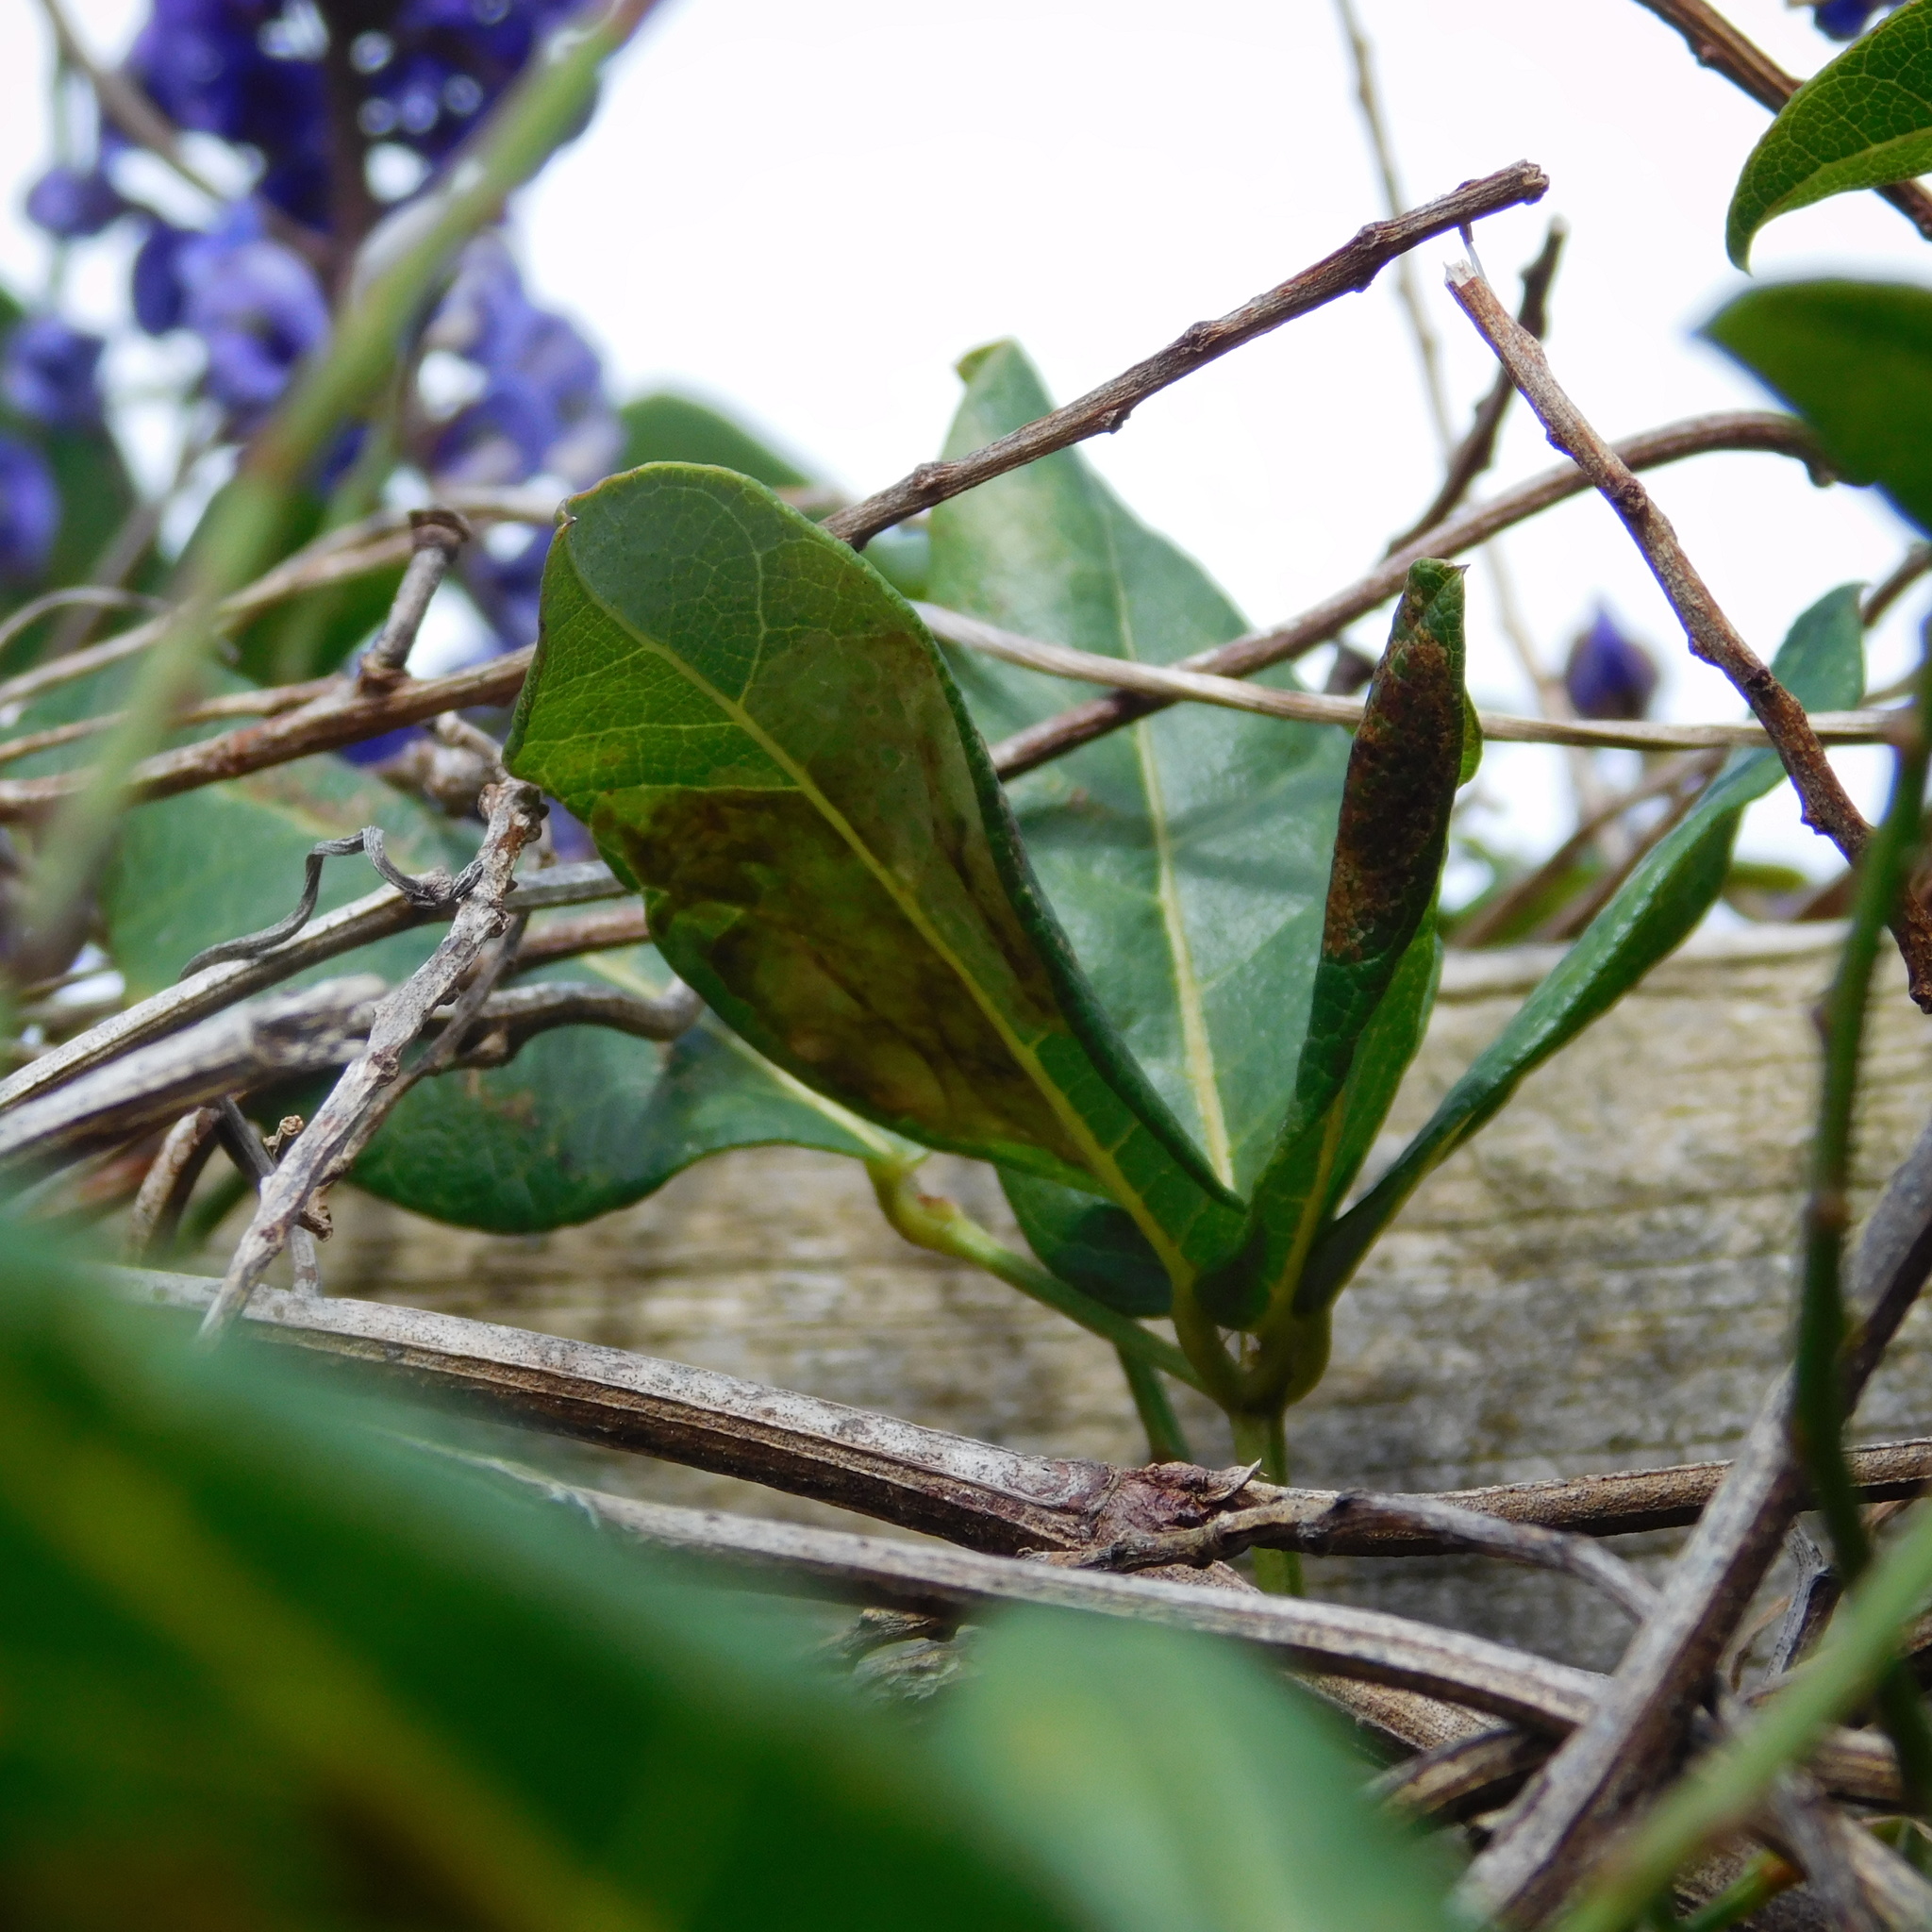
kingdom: Animalia
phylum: Arthropoda
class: Insecta
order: Lepidoptera
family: Gracillariidae
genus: Porphyrosela
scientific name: Porphyrosela hardenbergiella
